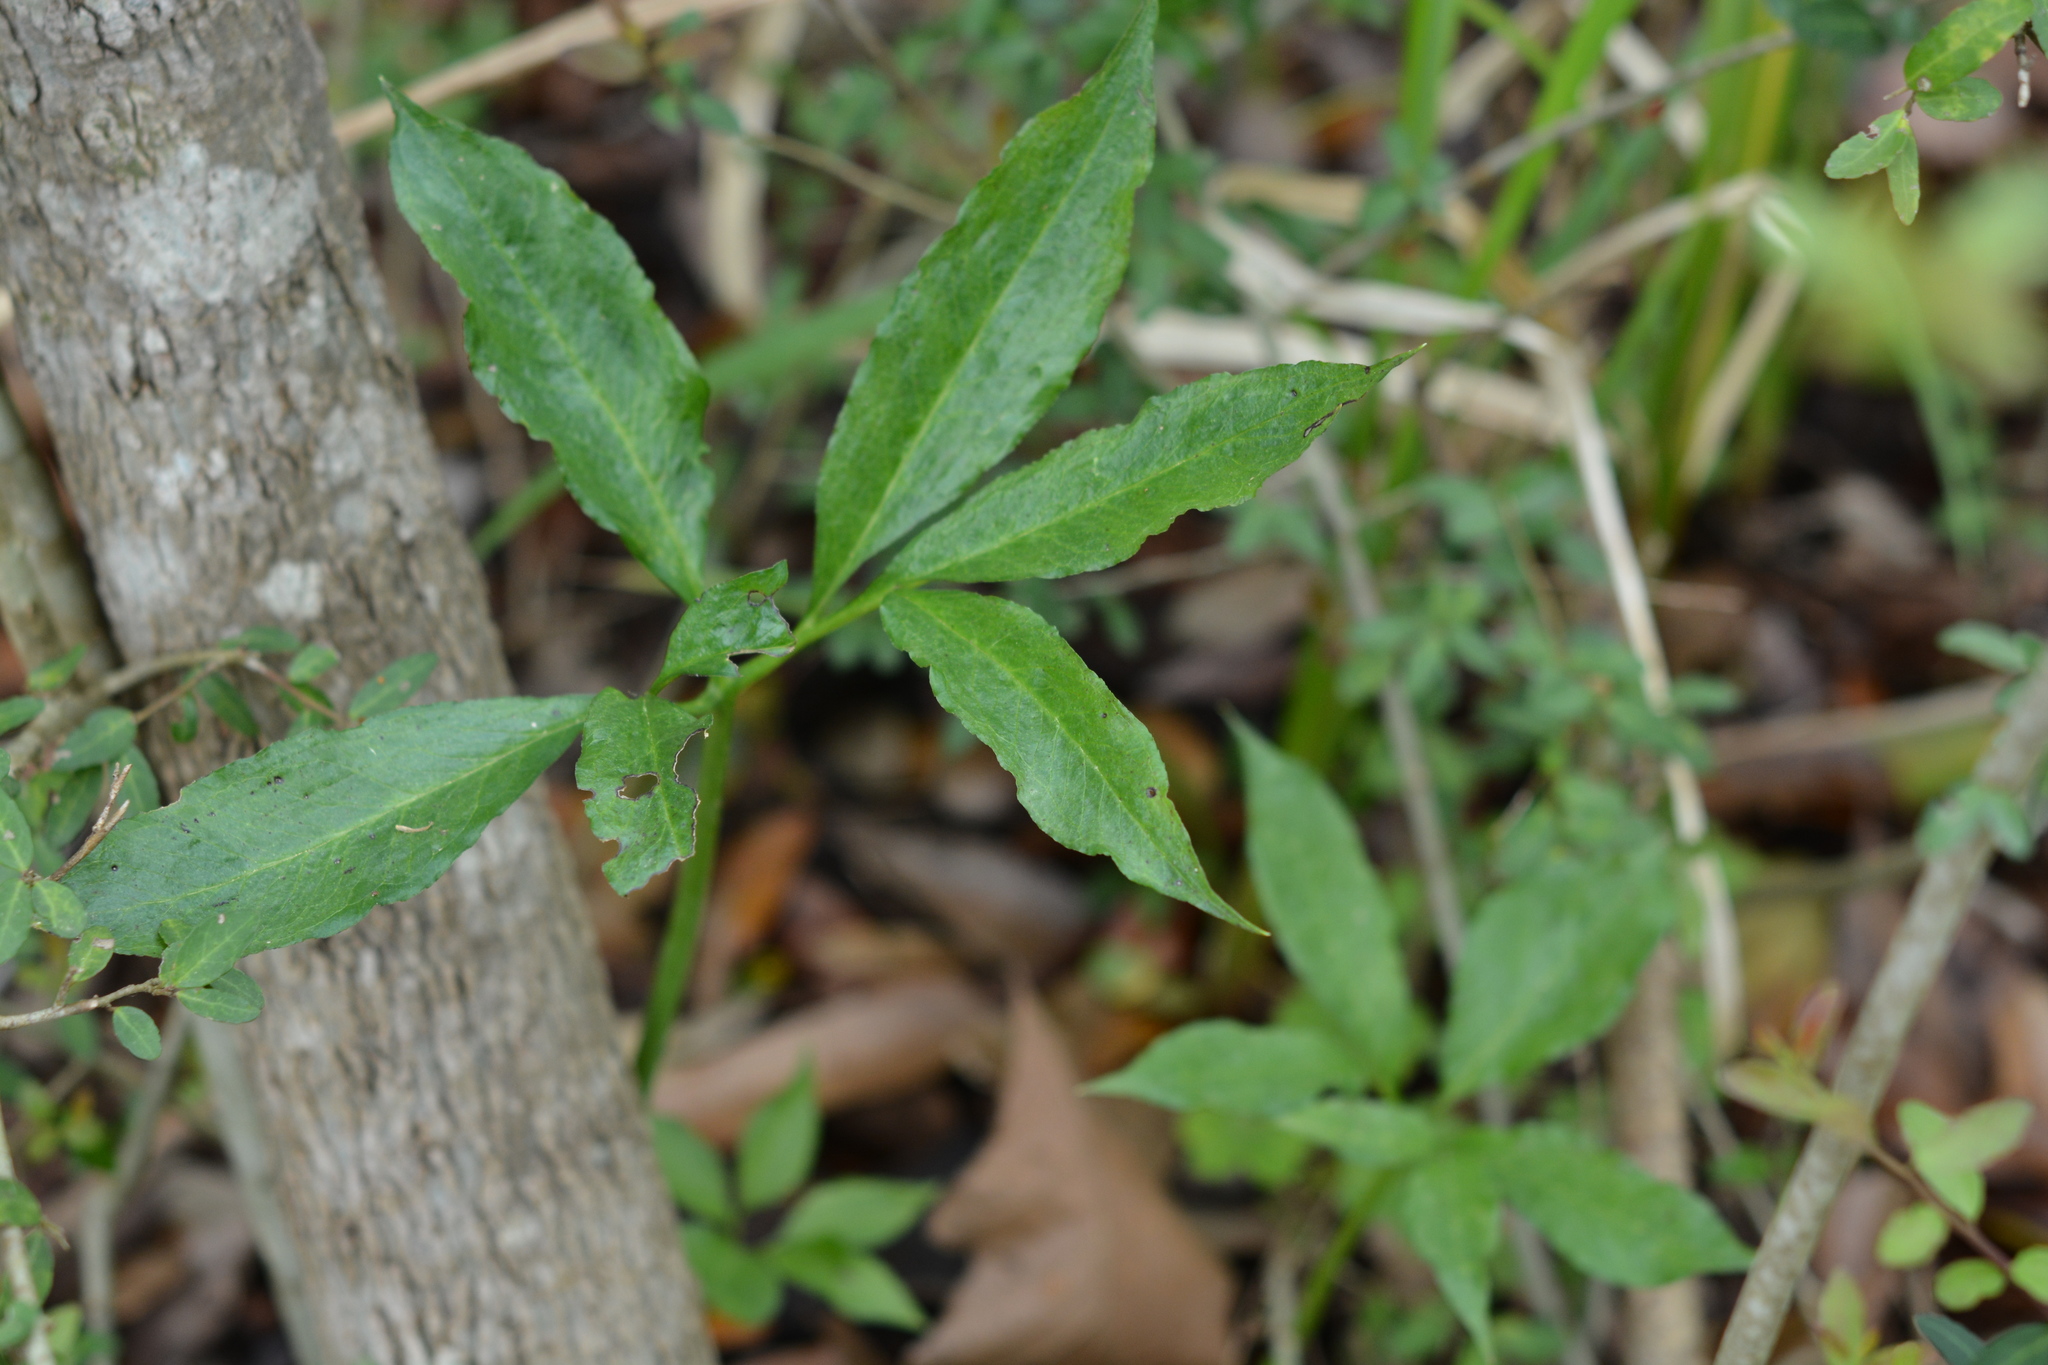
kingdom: Plantae
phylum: Tracheophyta
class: Liliopsida
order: Alismatales
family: Araceae
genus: Arisaema
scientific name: Arisaema dracontium
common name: Dragon-arum
